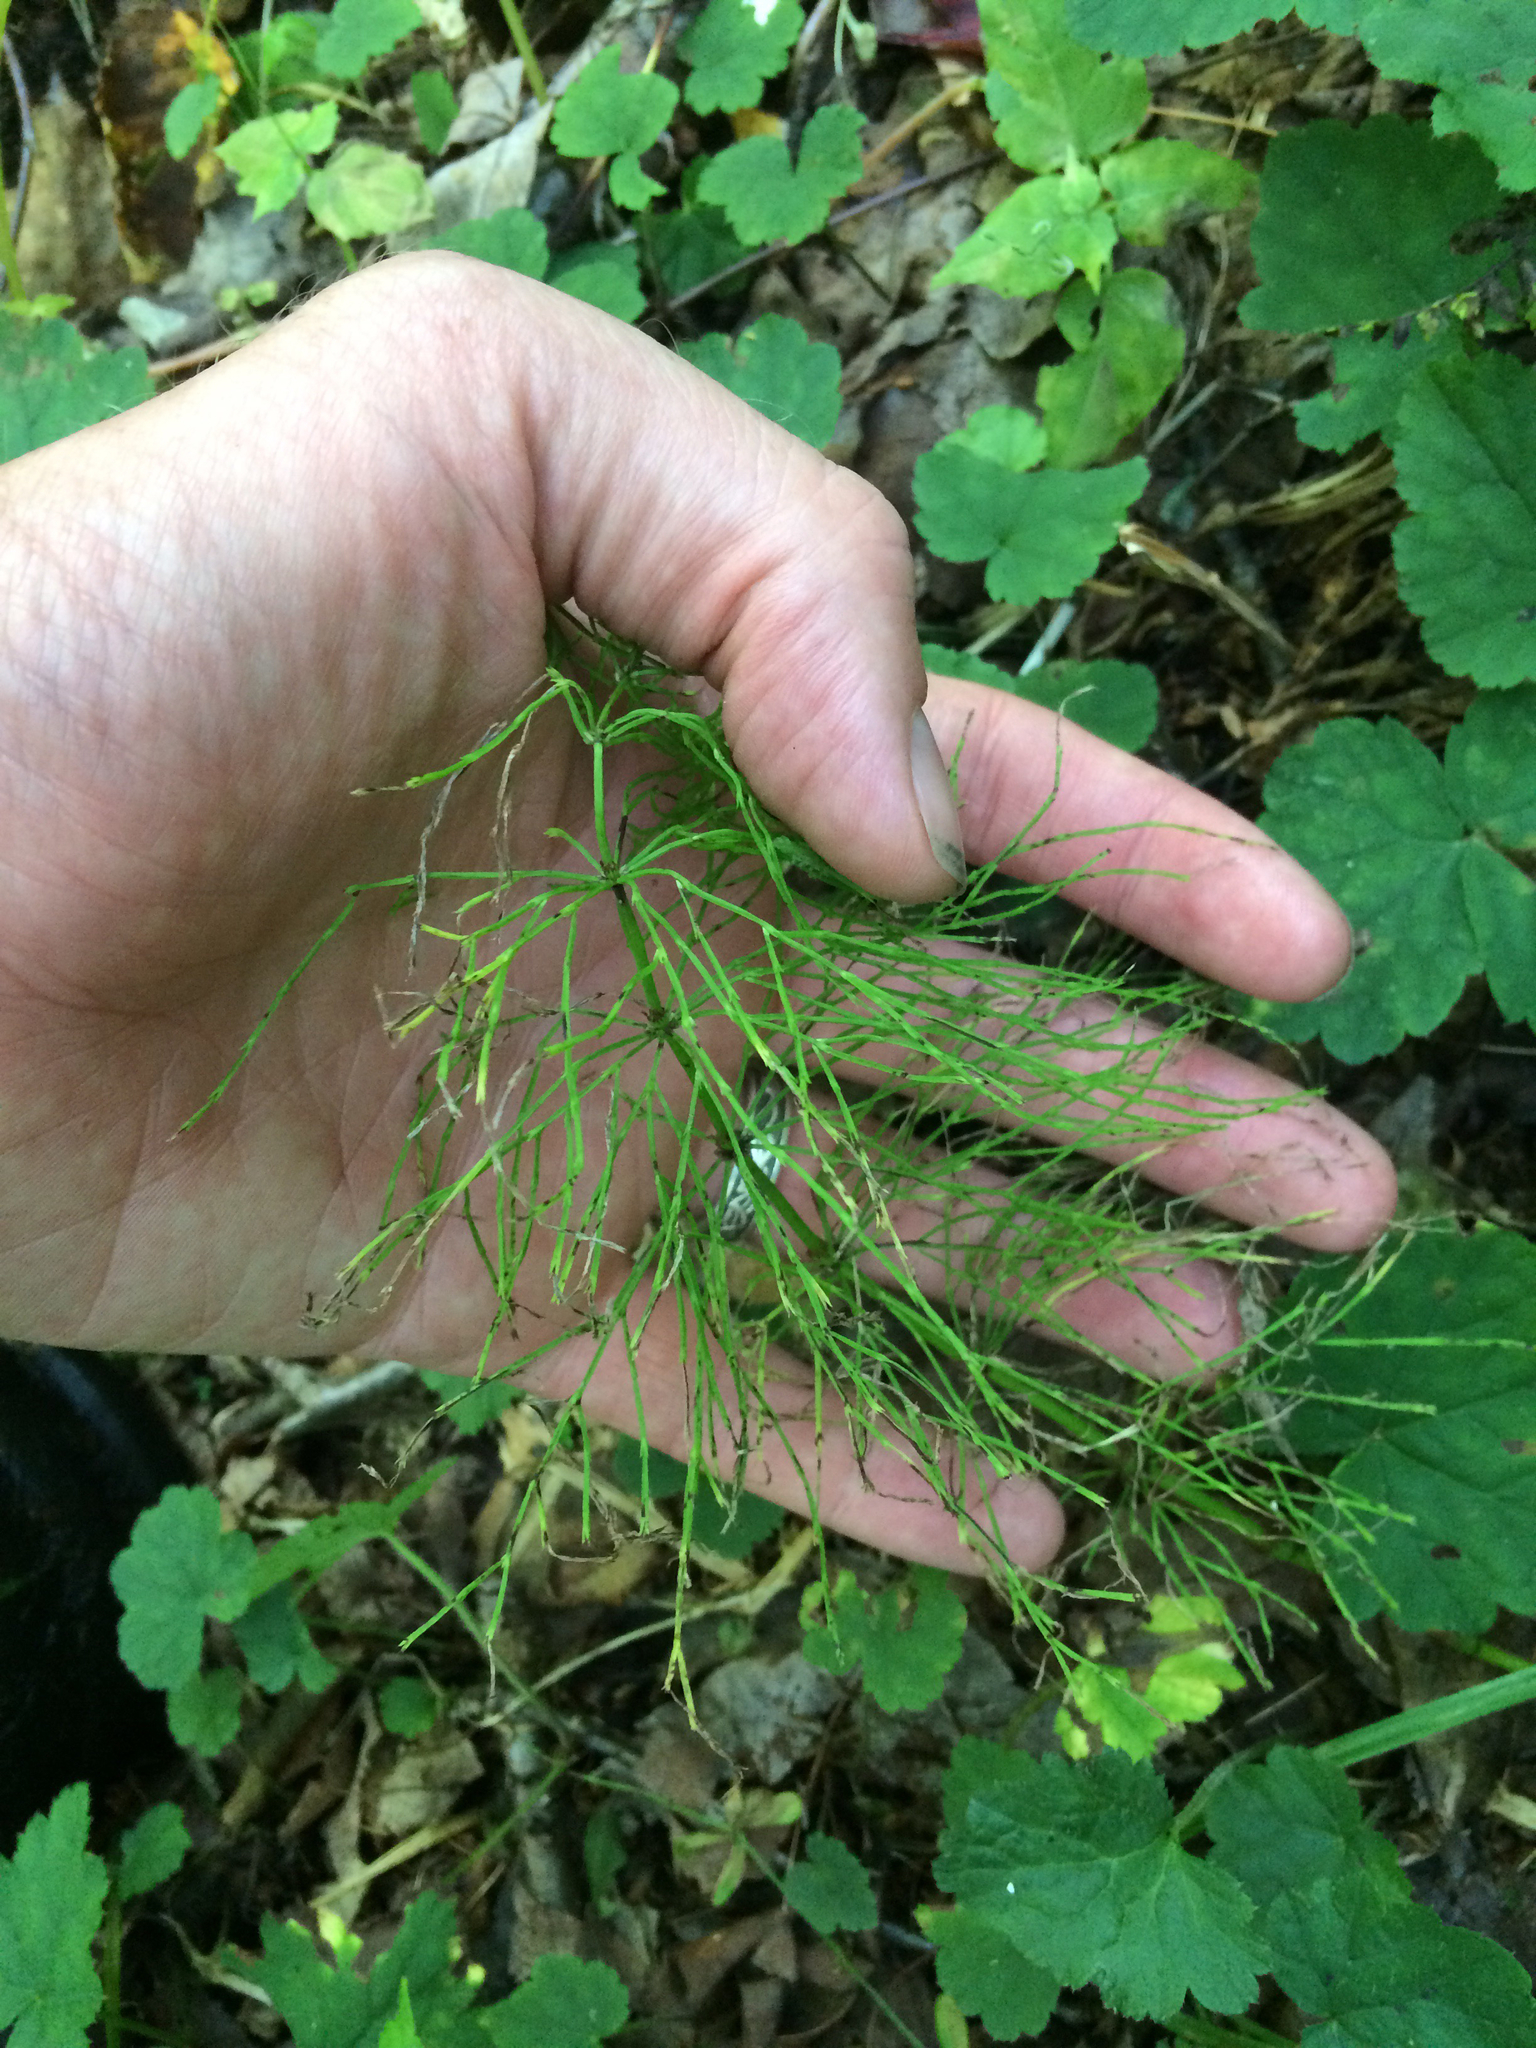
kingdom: Plantae
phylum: Tracheophyta
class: Polypodiopsida
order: Equisetales
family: Equisetaceae
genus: Equisetum
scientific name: Equisetum sylvaticum
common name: Wood horsetail
